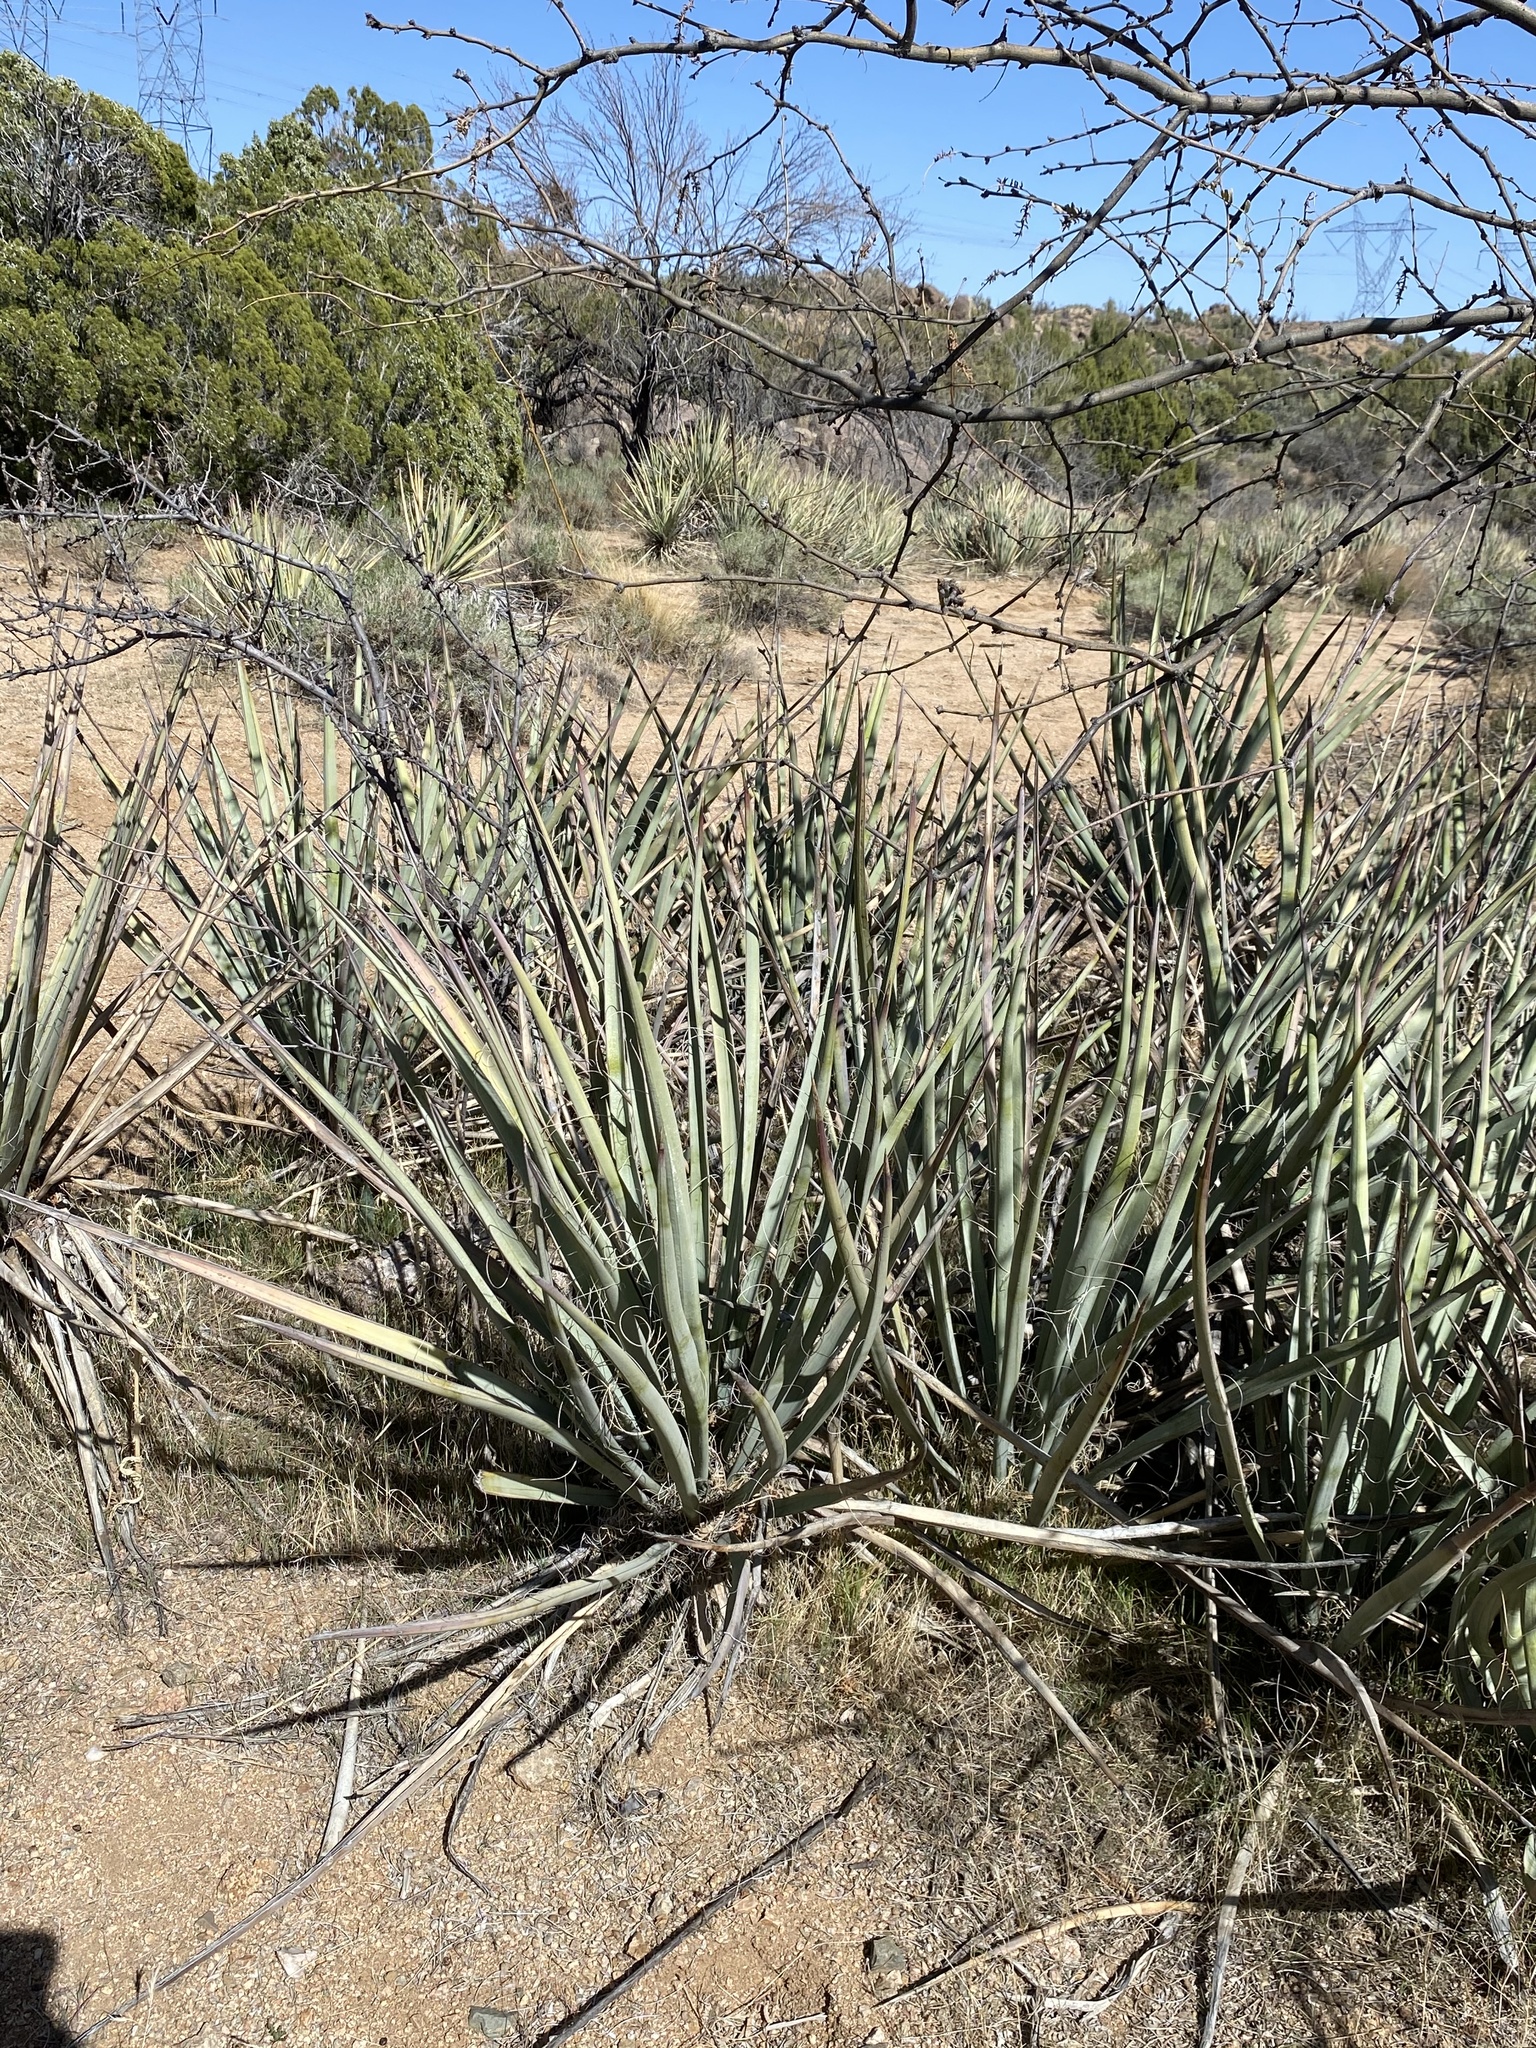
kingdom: Plantae
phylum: Tracheophyta
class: Liliopsida
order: Asparagales
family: Asparagaceae
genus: Yucca
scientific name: Yucca baccata
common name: Banana yucca
